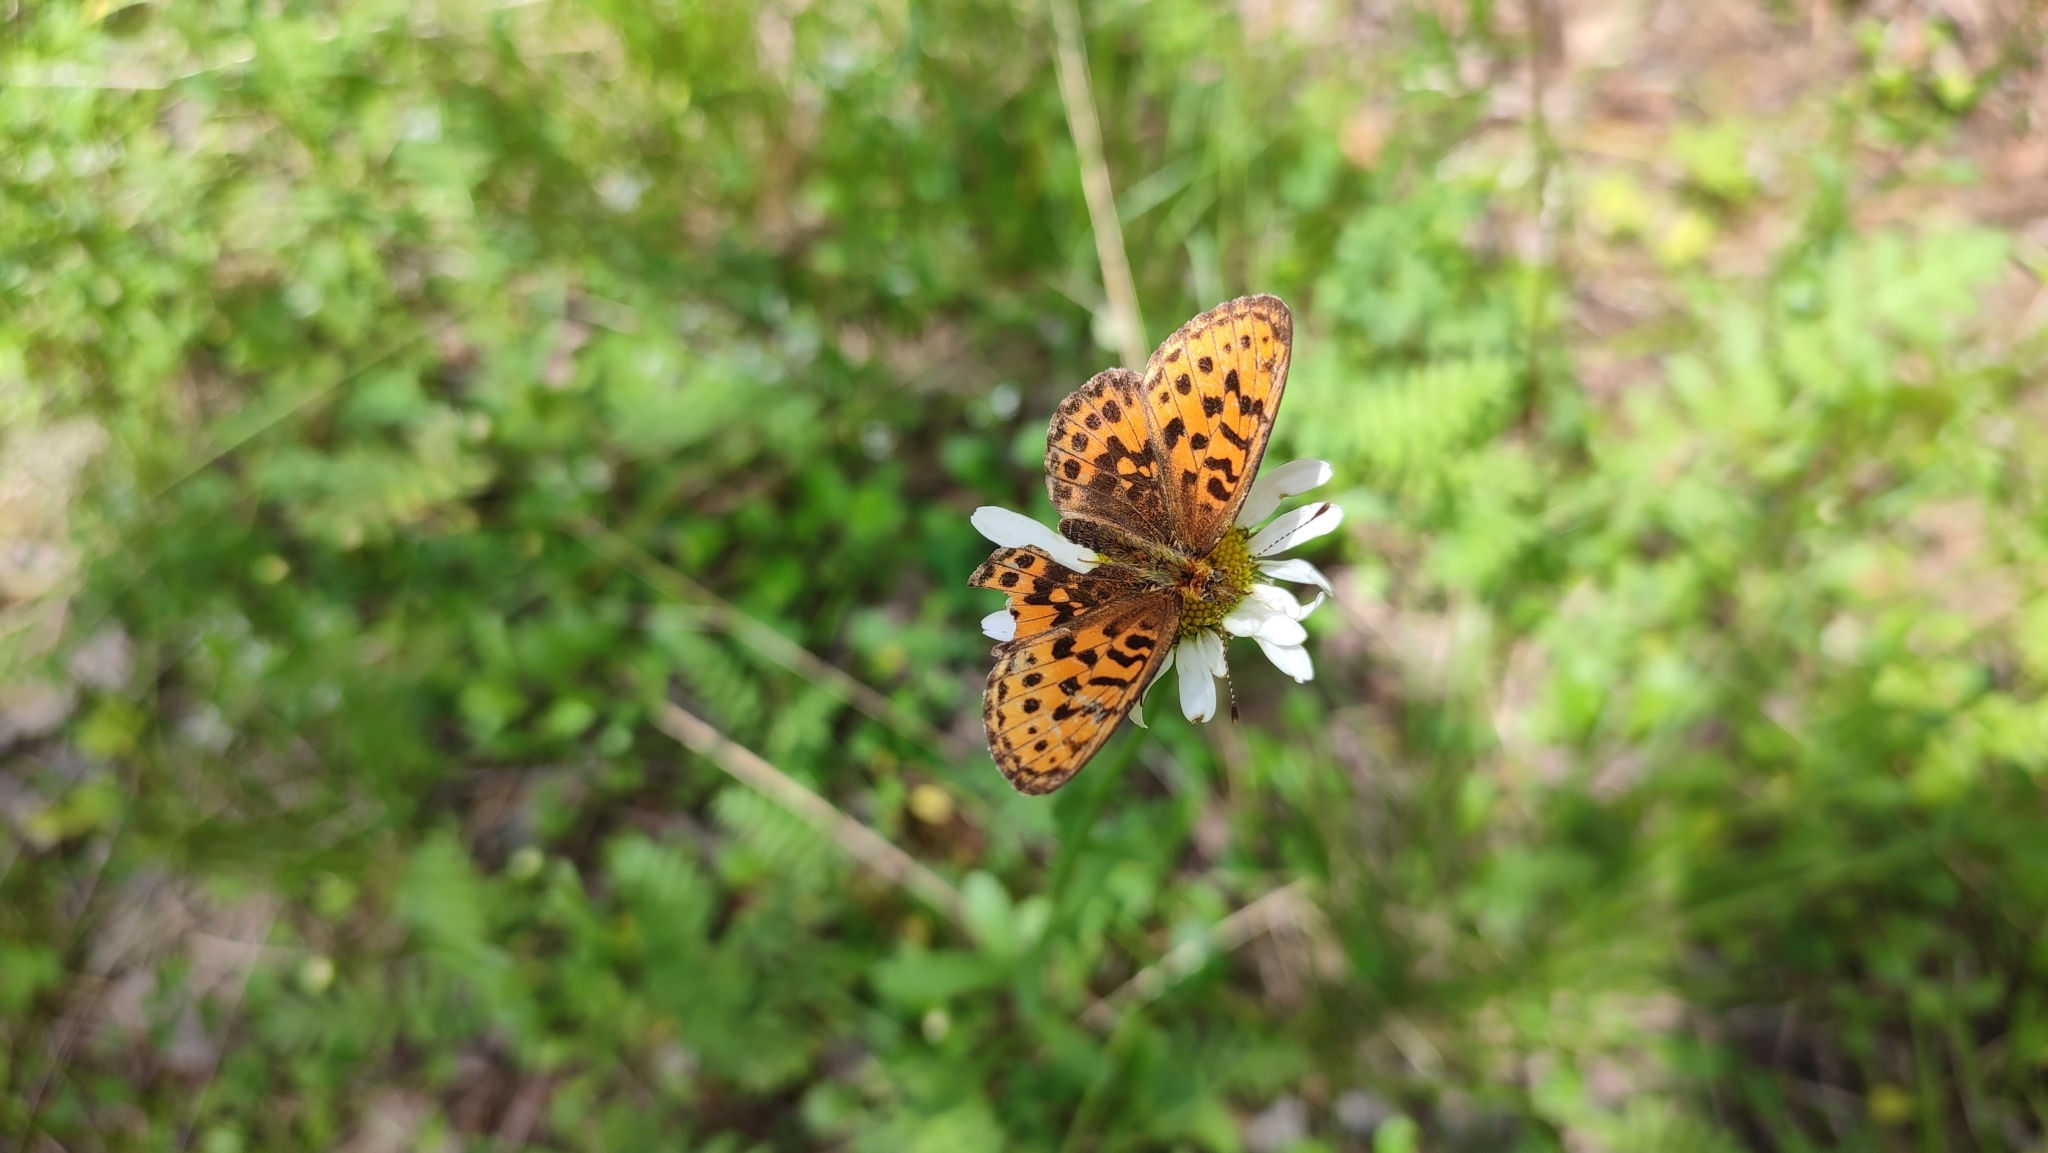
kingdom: Animalia
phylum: Arthropoda
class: Insecta
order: Lepidoptera
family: Nymphalidae
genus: Boloria
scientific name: Boloria thore
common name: Thor's fritillary
